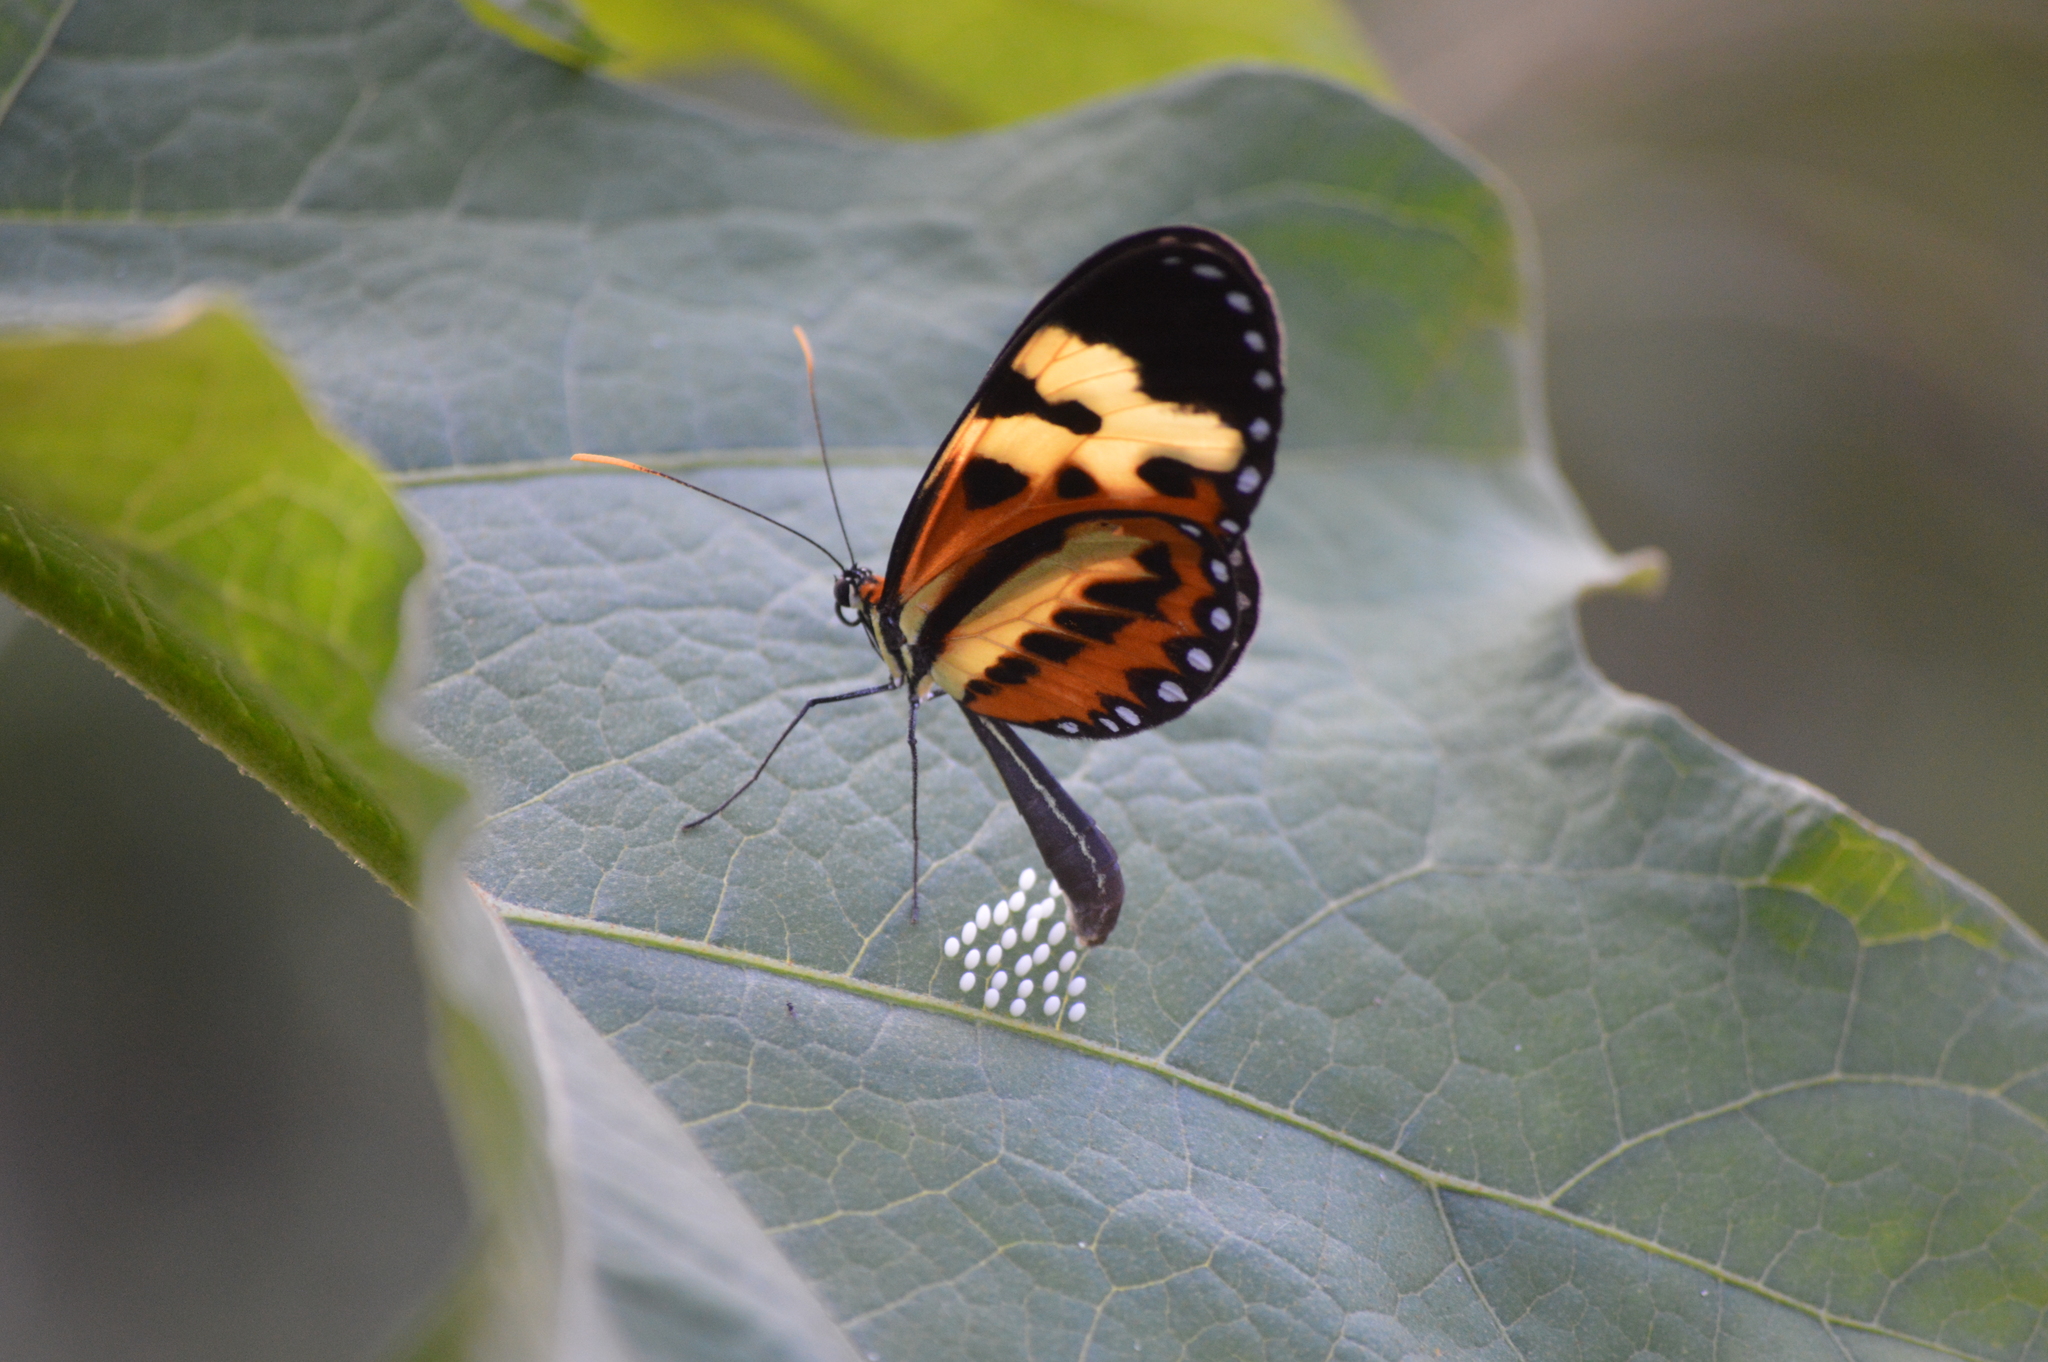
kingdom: Animalia
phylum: Arthropoda
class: Insecta
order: Lepidoptera
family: Nymphalidae
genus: Mechanitis
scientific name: Mechanitis polymnia
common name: Disturbed tigerwing
